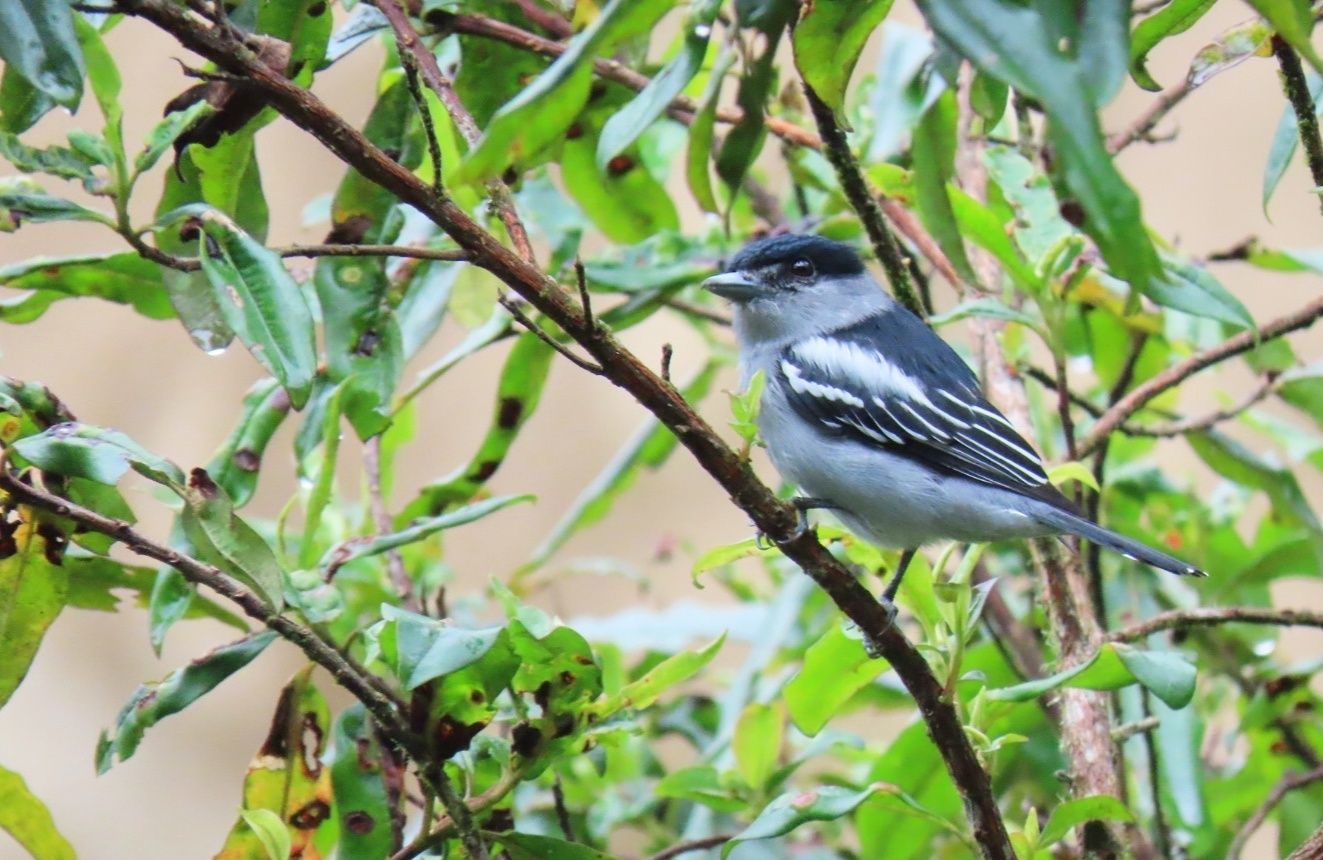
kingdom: Animalia
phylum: Chordata
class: Aves
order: Passeriformes
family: Cotingidae
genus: Pachyramphus
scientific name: Pachyramphus polychopterus
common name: White-winged becard
